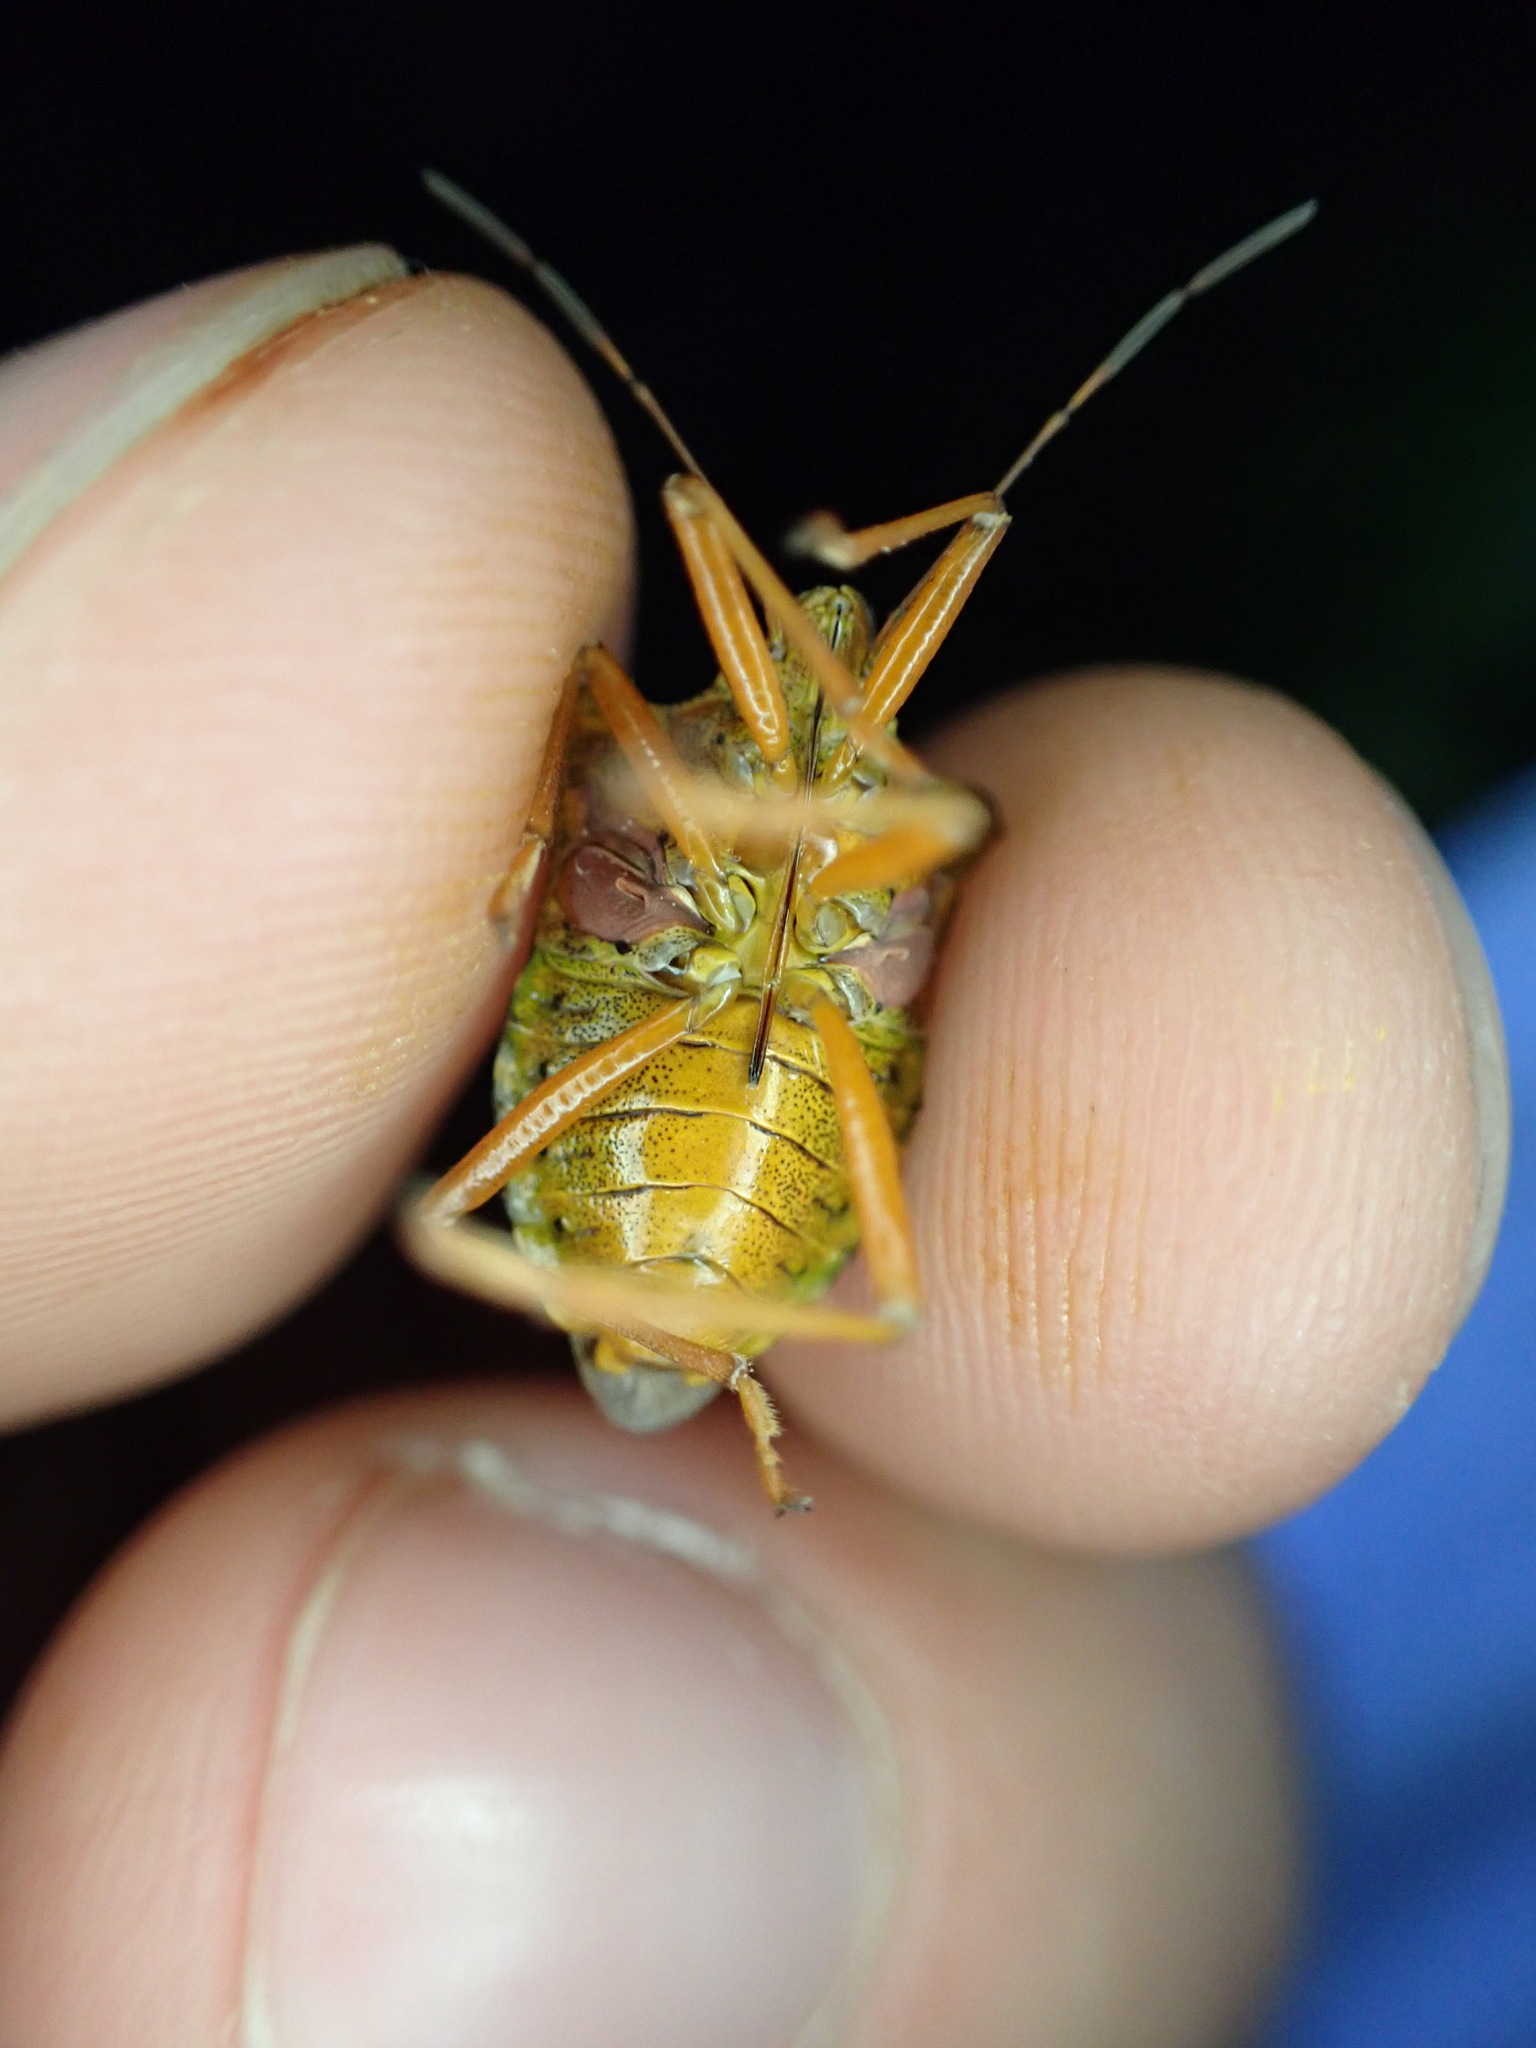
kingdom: Animalia
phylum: Arthropoda
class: Insecta
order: Hemiptera
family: Pentatomidae
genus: Pentatoma
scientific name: Pentatoma rufipes
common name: Forest bug
